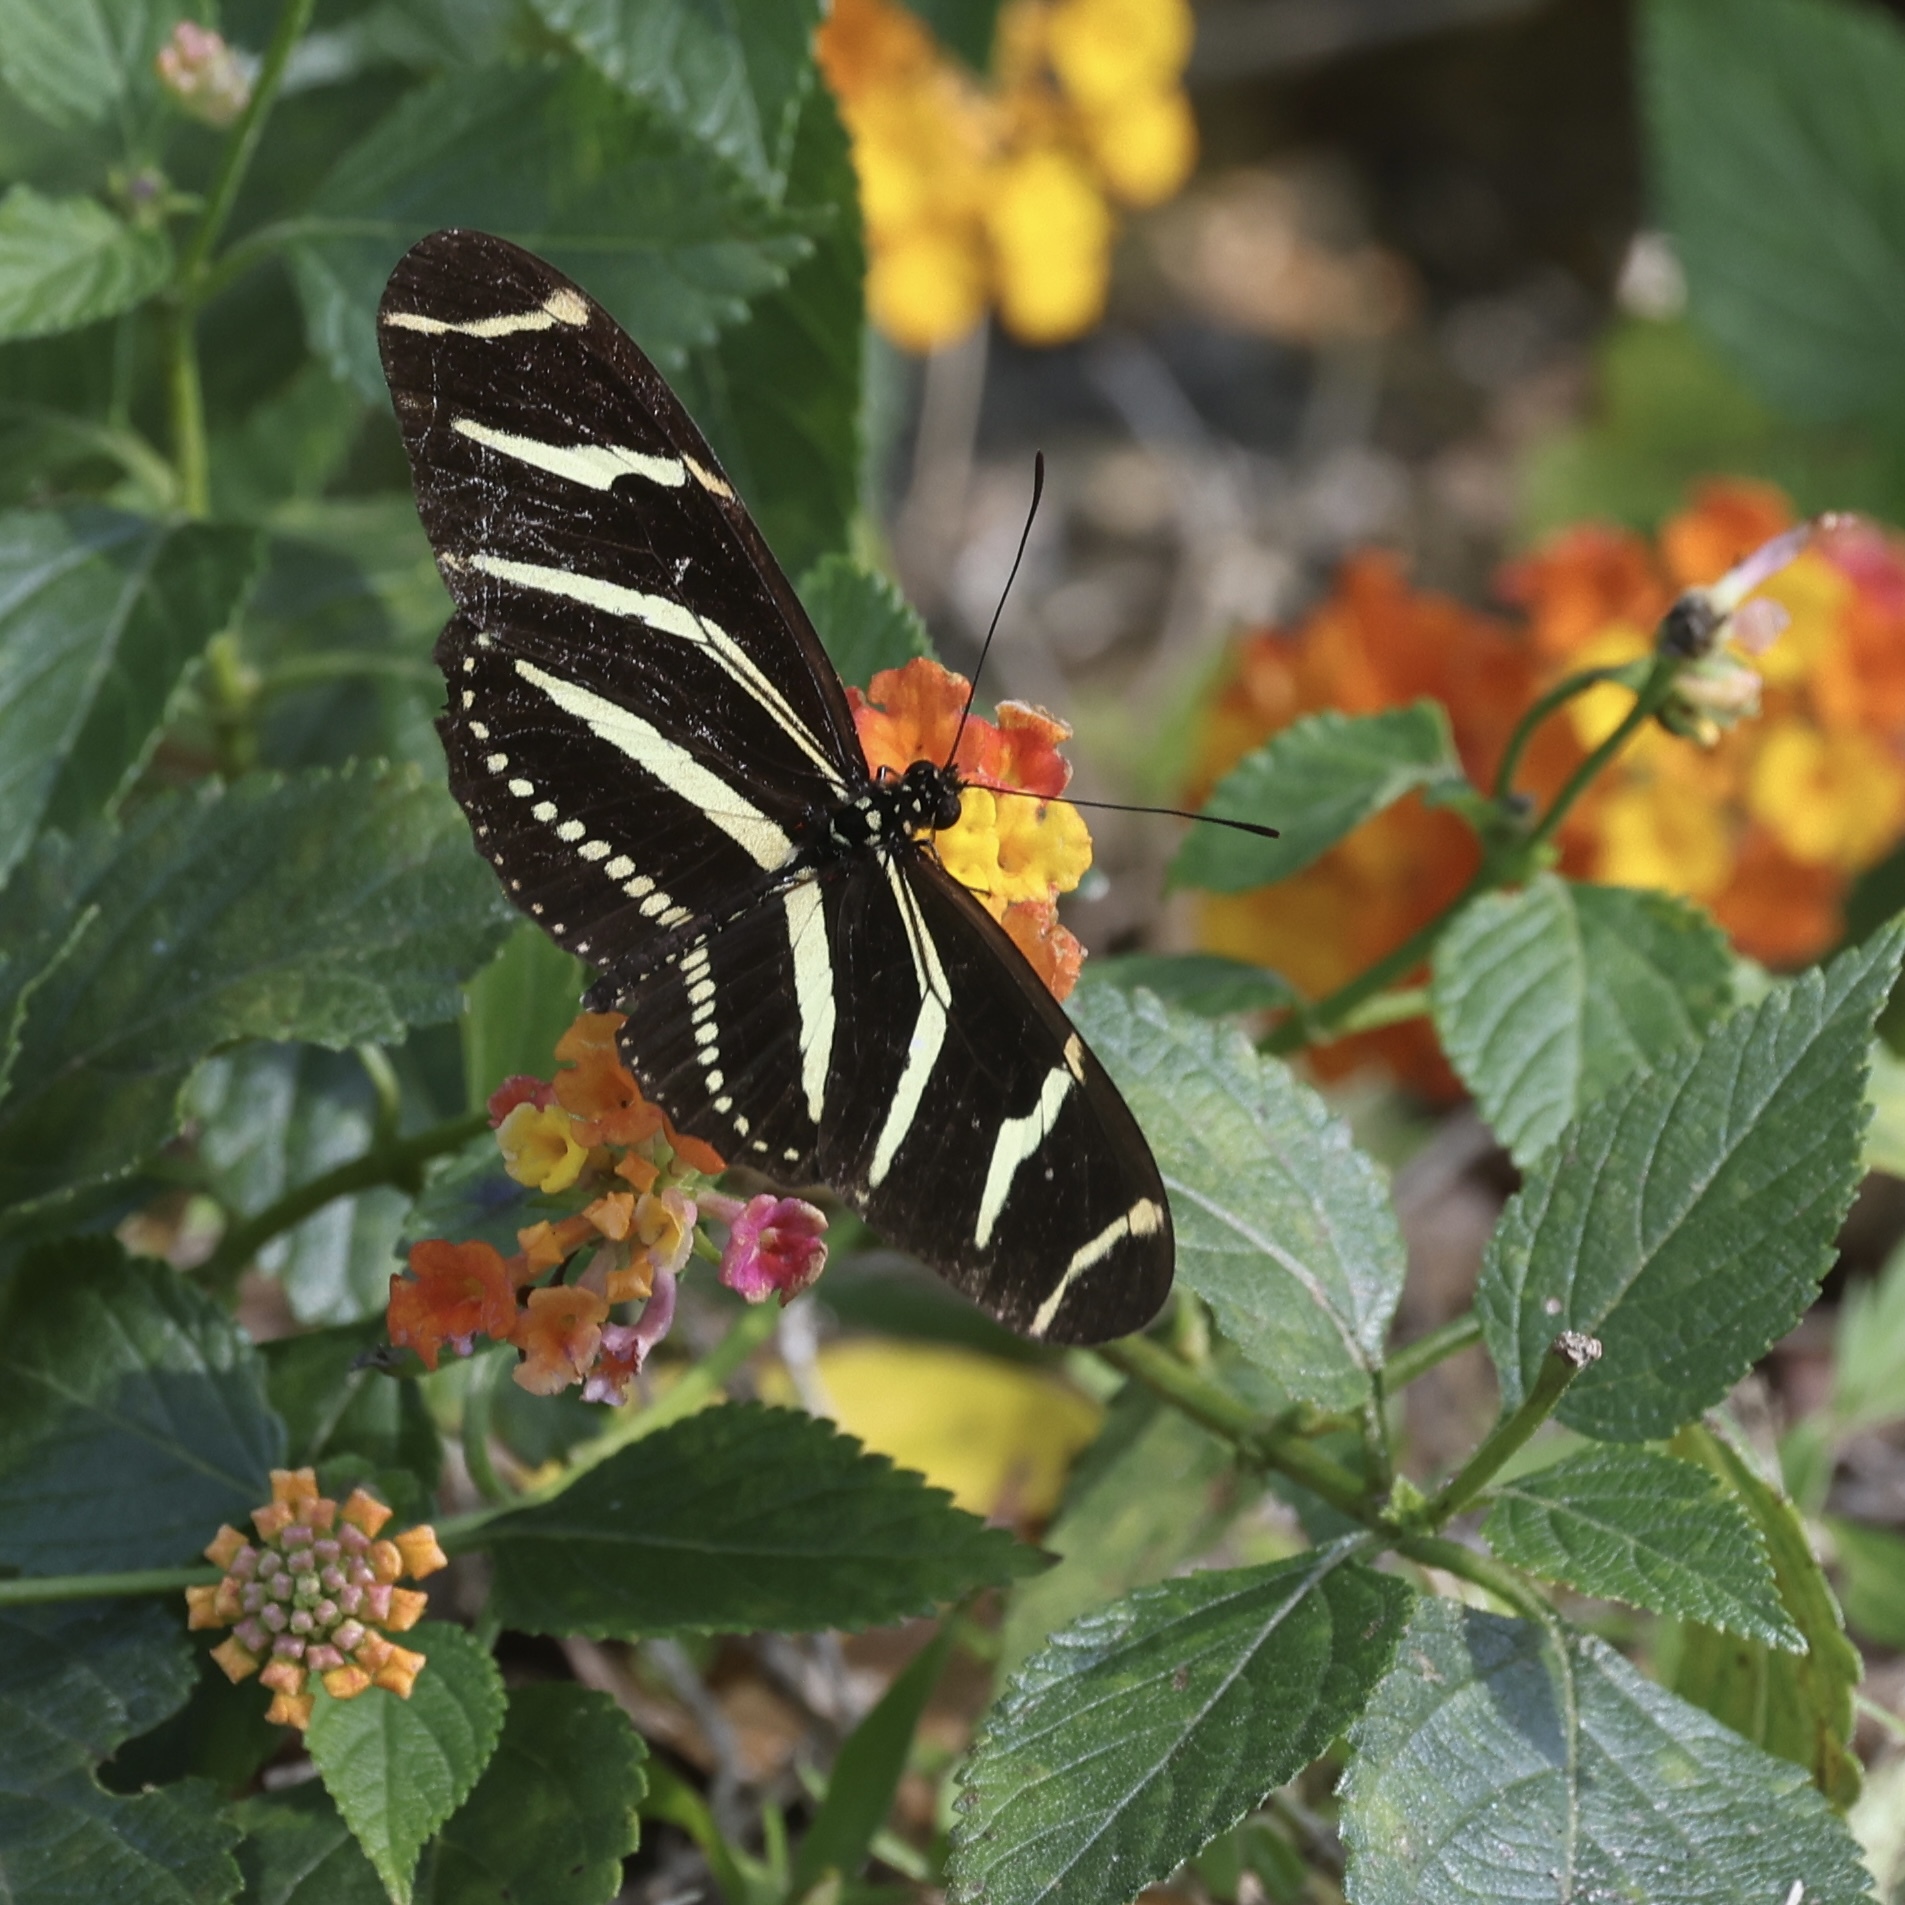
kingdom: Animalia
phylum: Arthropoda
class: Insecta
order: Lepidoptera
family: Nymphalidae
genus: Heliconius
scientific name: Heliconius charithonia
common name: Zebra long wing
